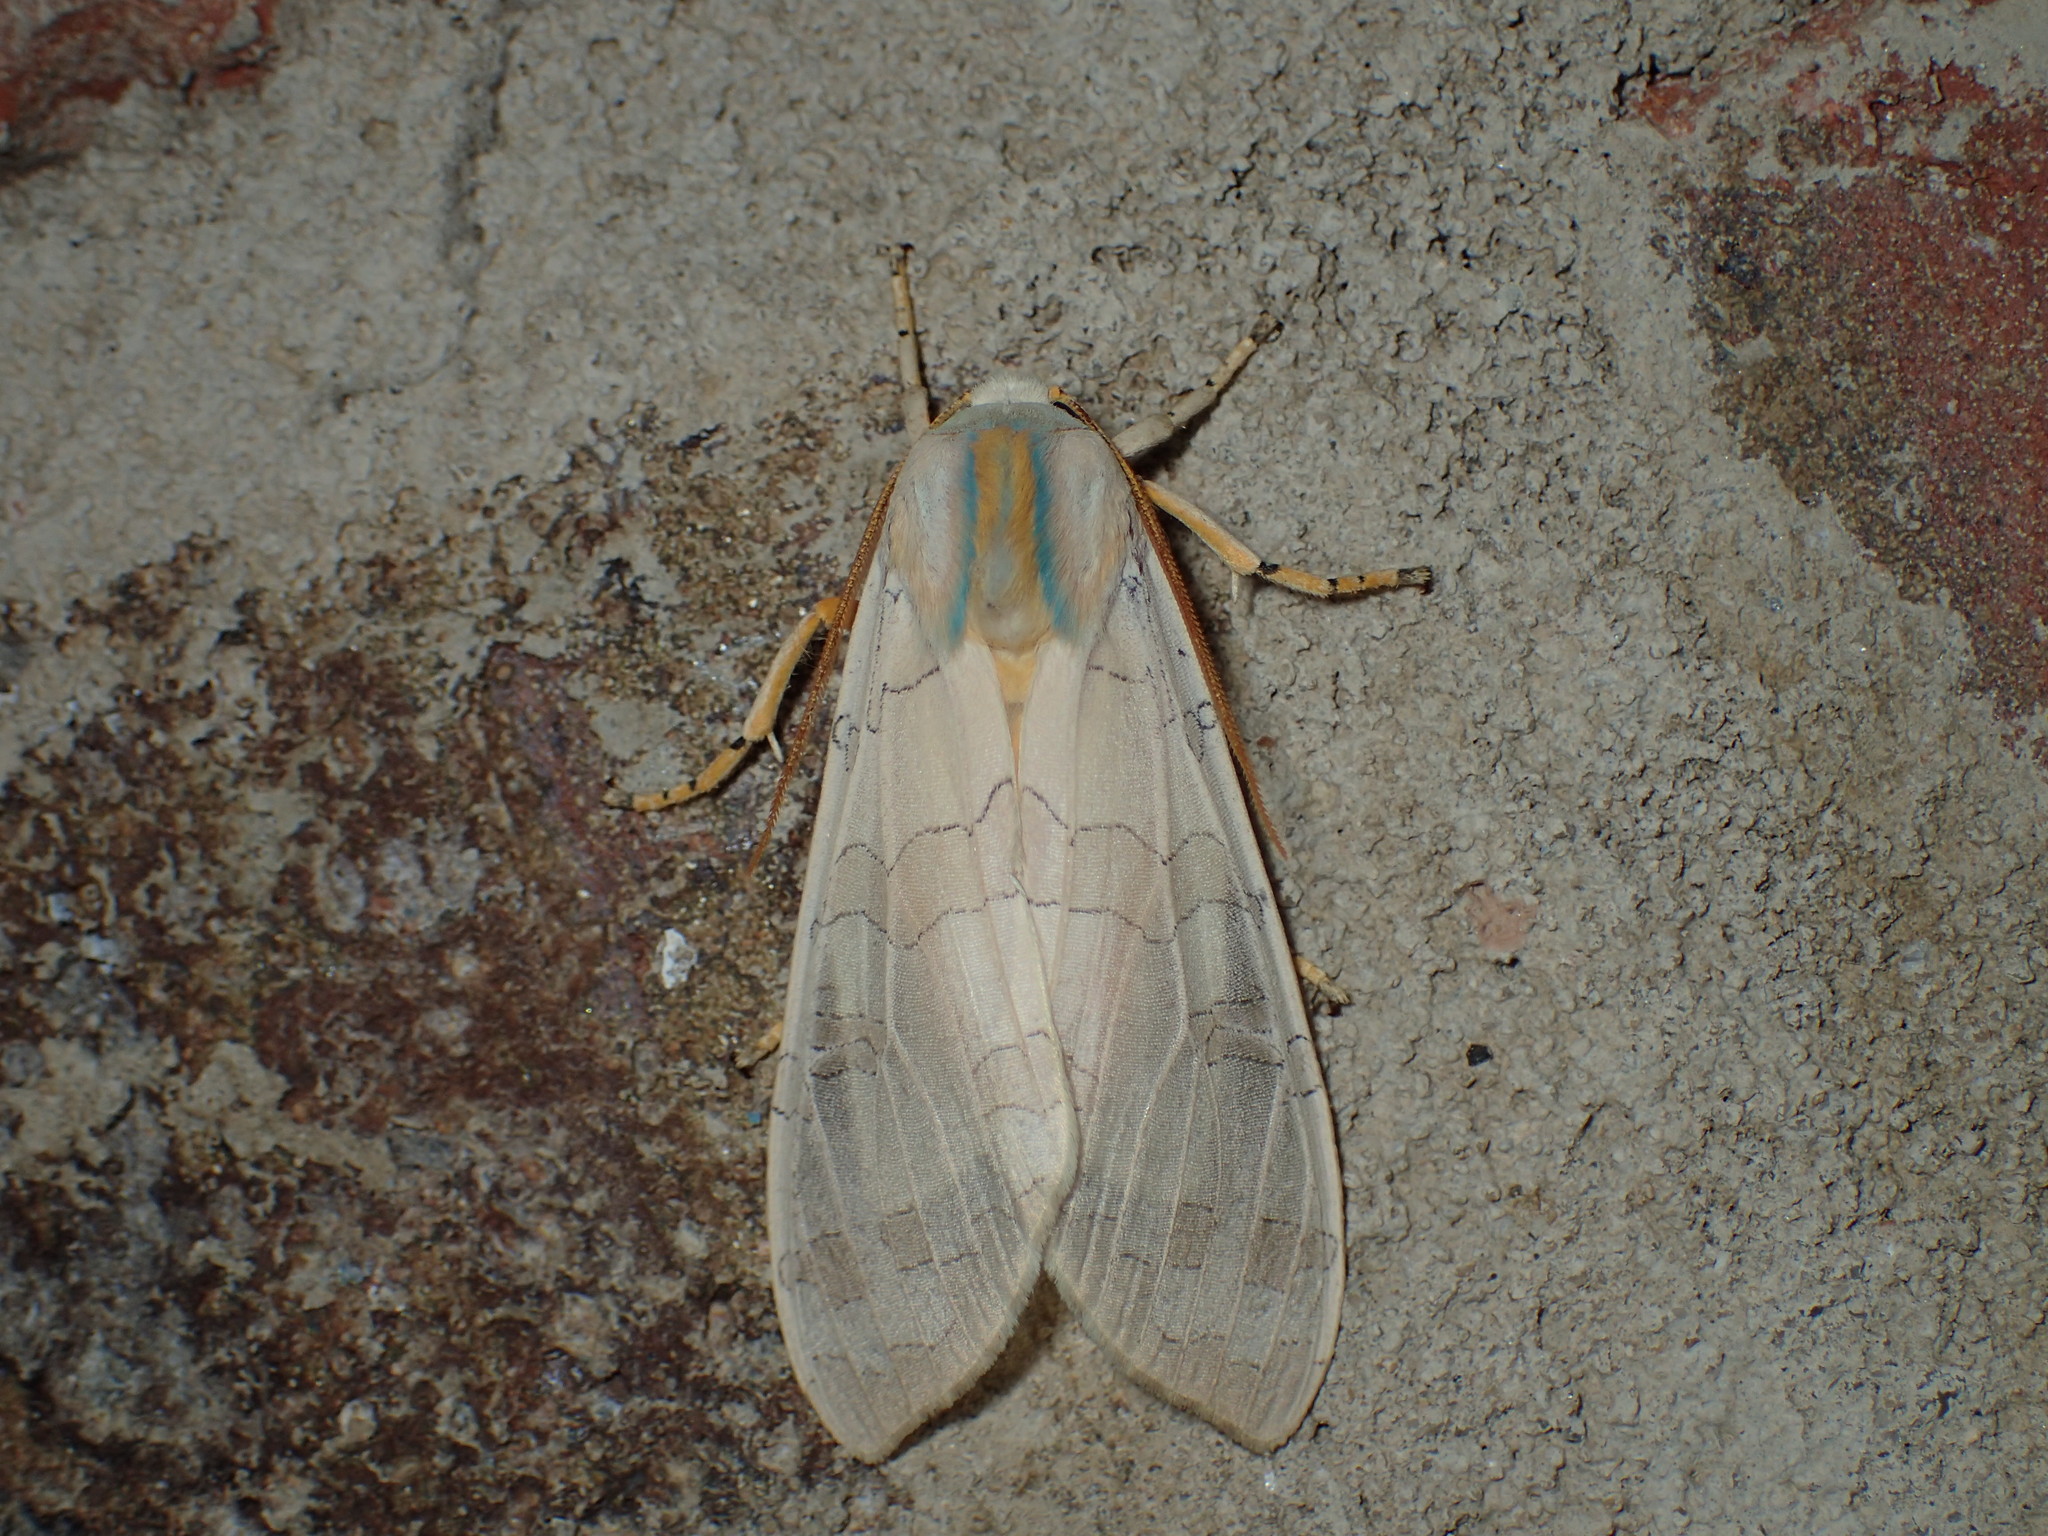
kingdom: Animalia
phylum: Arthropoda
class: Insecta
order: Lepidoptera
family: Erebidae
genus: Halysidota
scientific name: Halysidota
